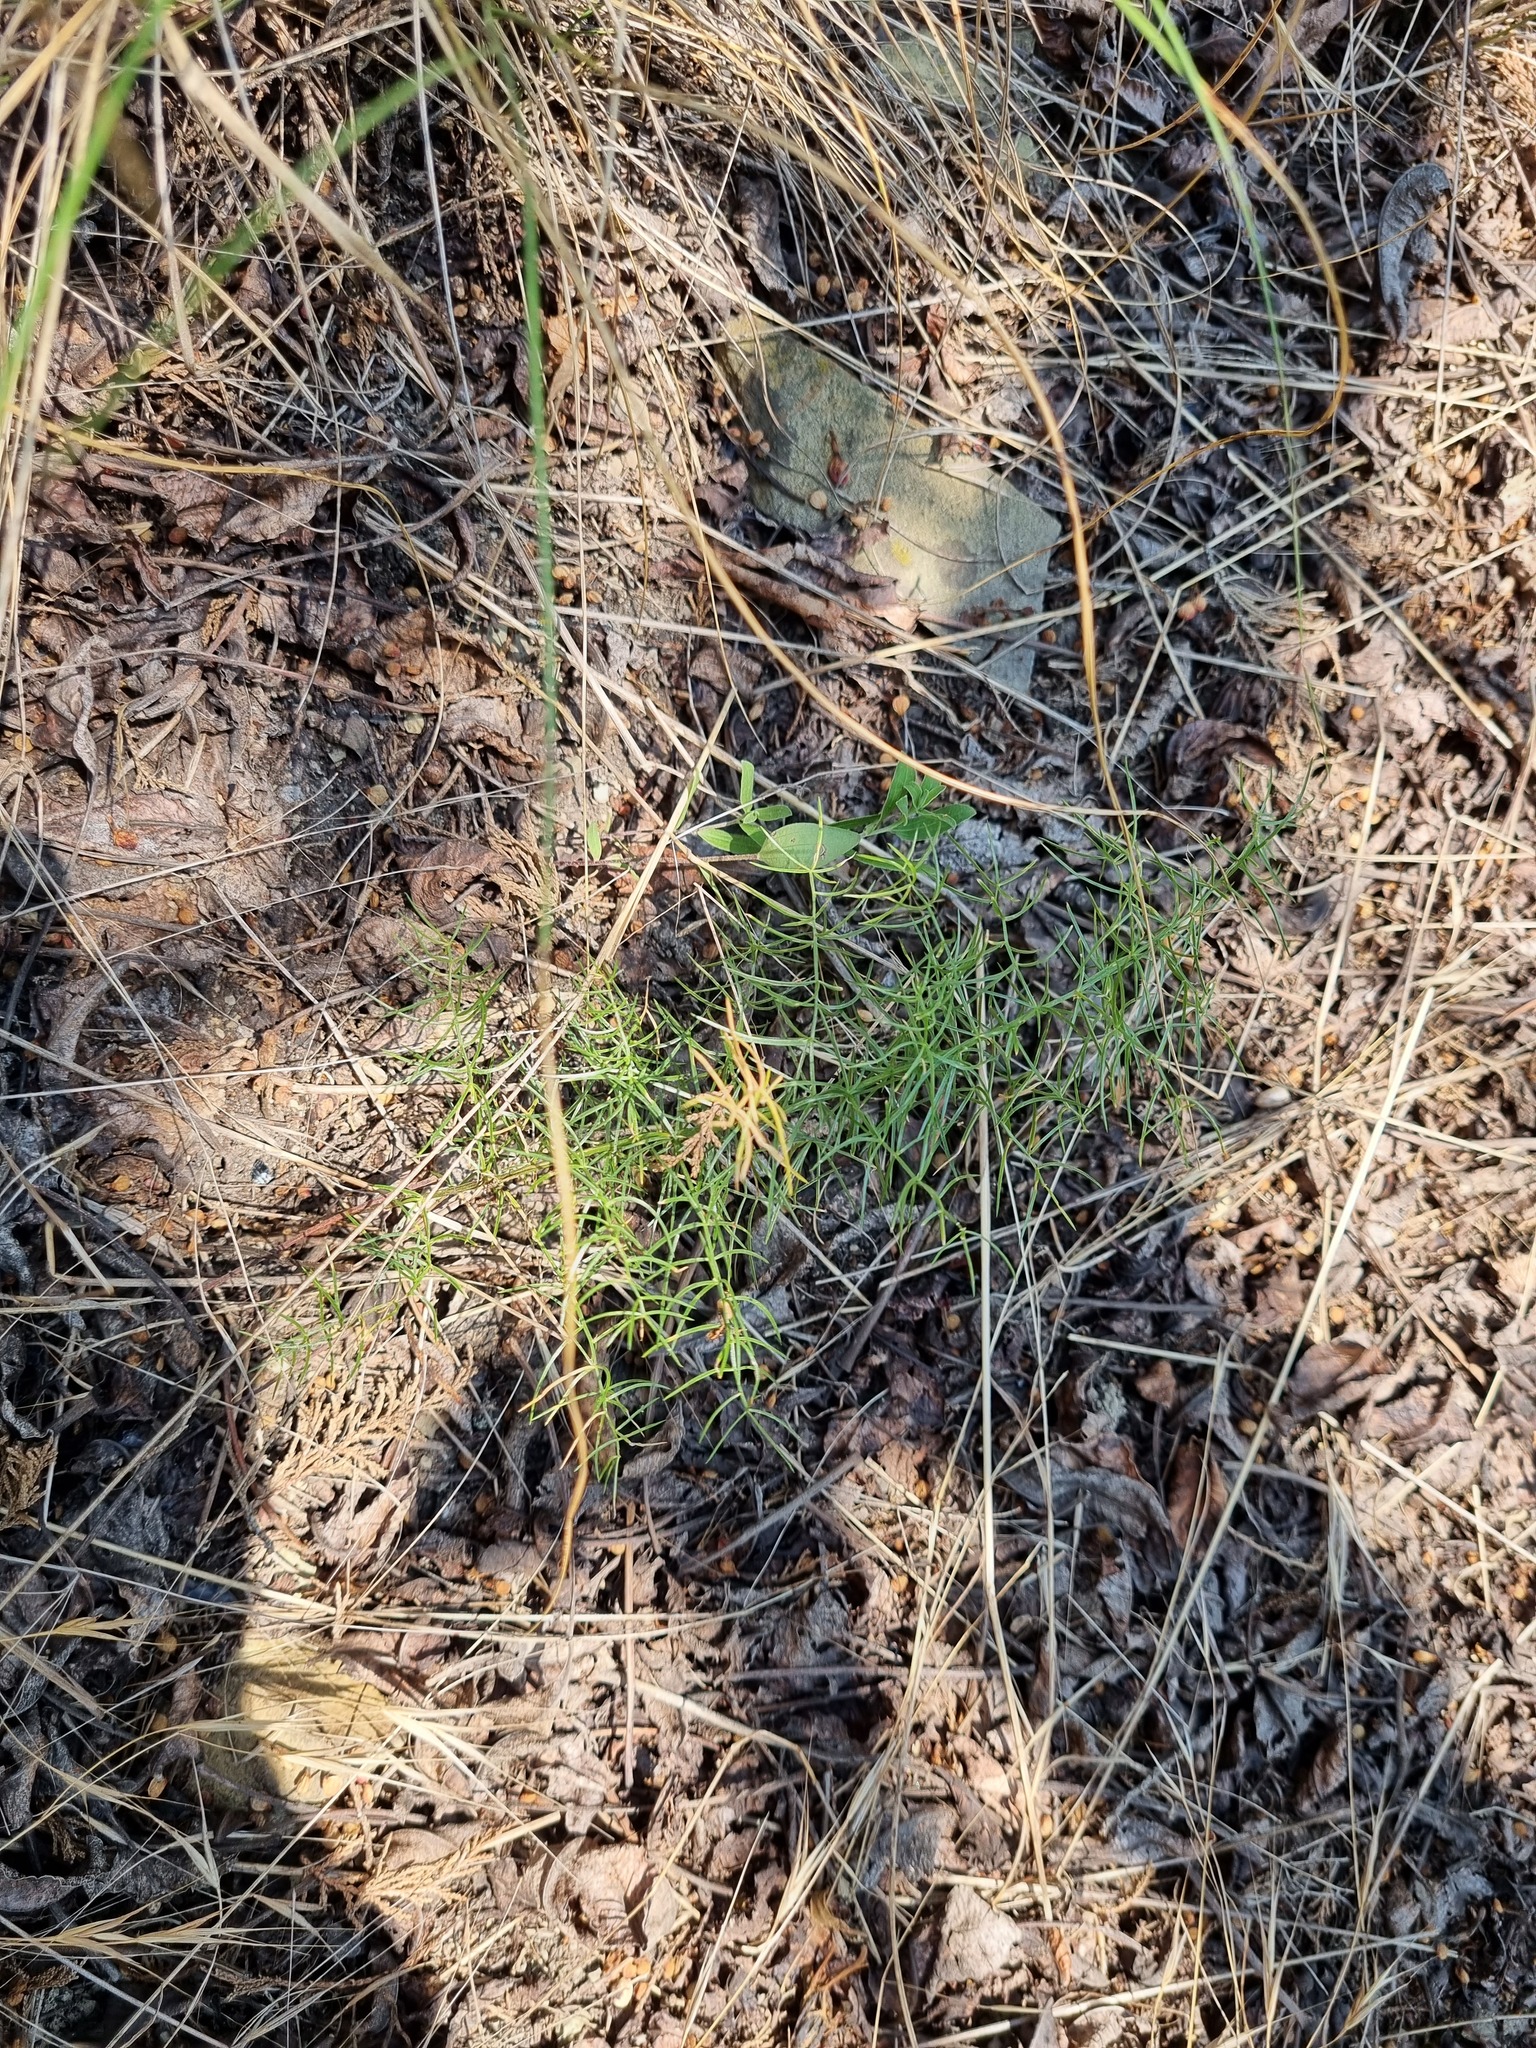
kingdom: Plantae
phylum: Tracheophyta
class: Liliopsida
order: Asparagales
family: Asparagaceae
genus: Asparagus
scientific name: Asparagus verticillatus
